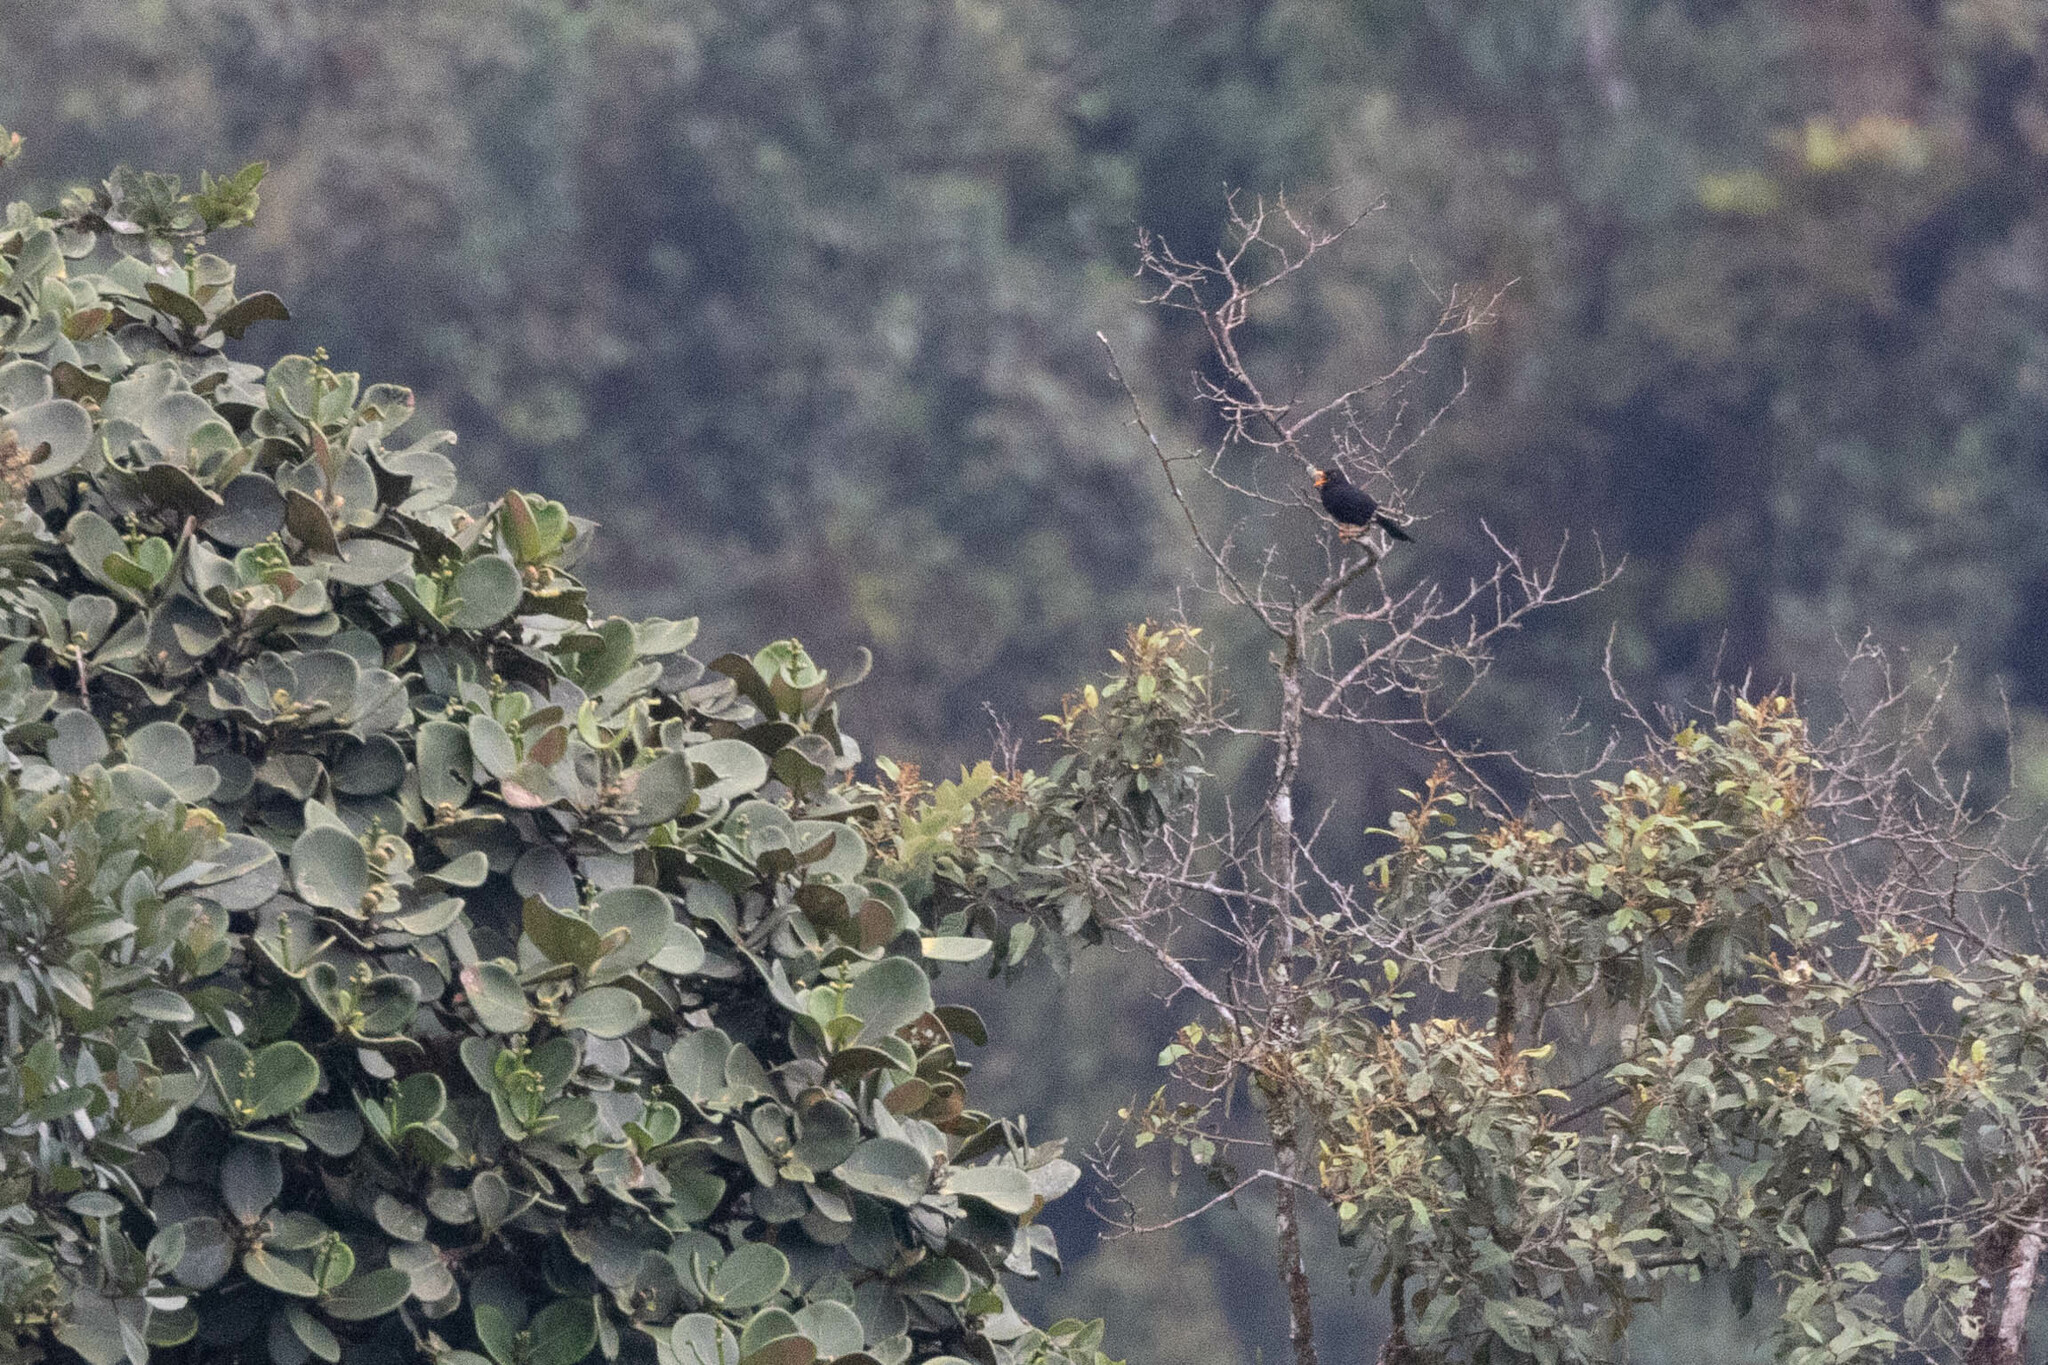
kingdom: Animalia
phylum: Chordata
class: Aves
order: Passeriformes
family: Turdidae
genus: Turdus
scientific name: Turdus serranus
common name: Glossy-black thrush
